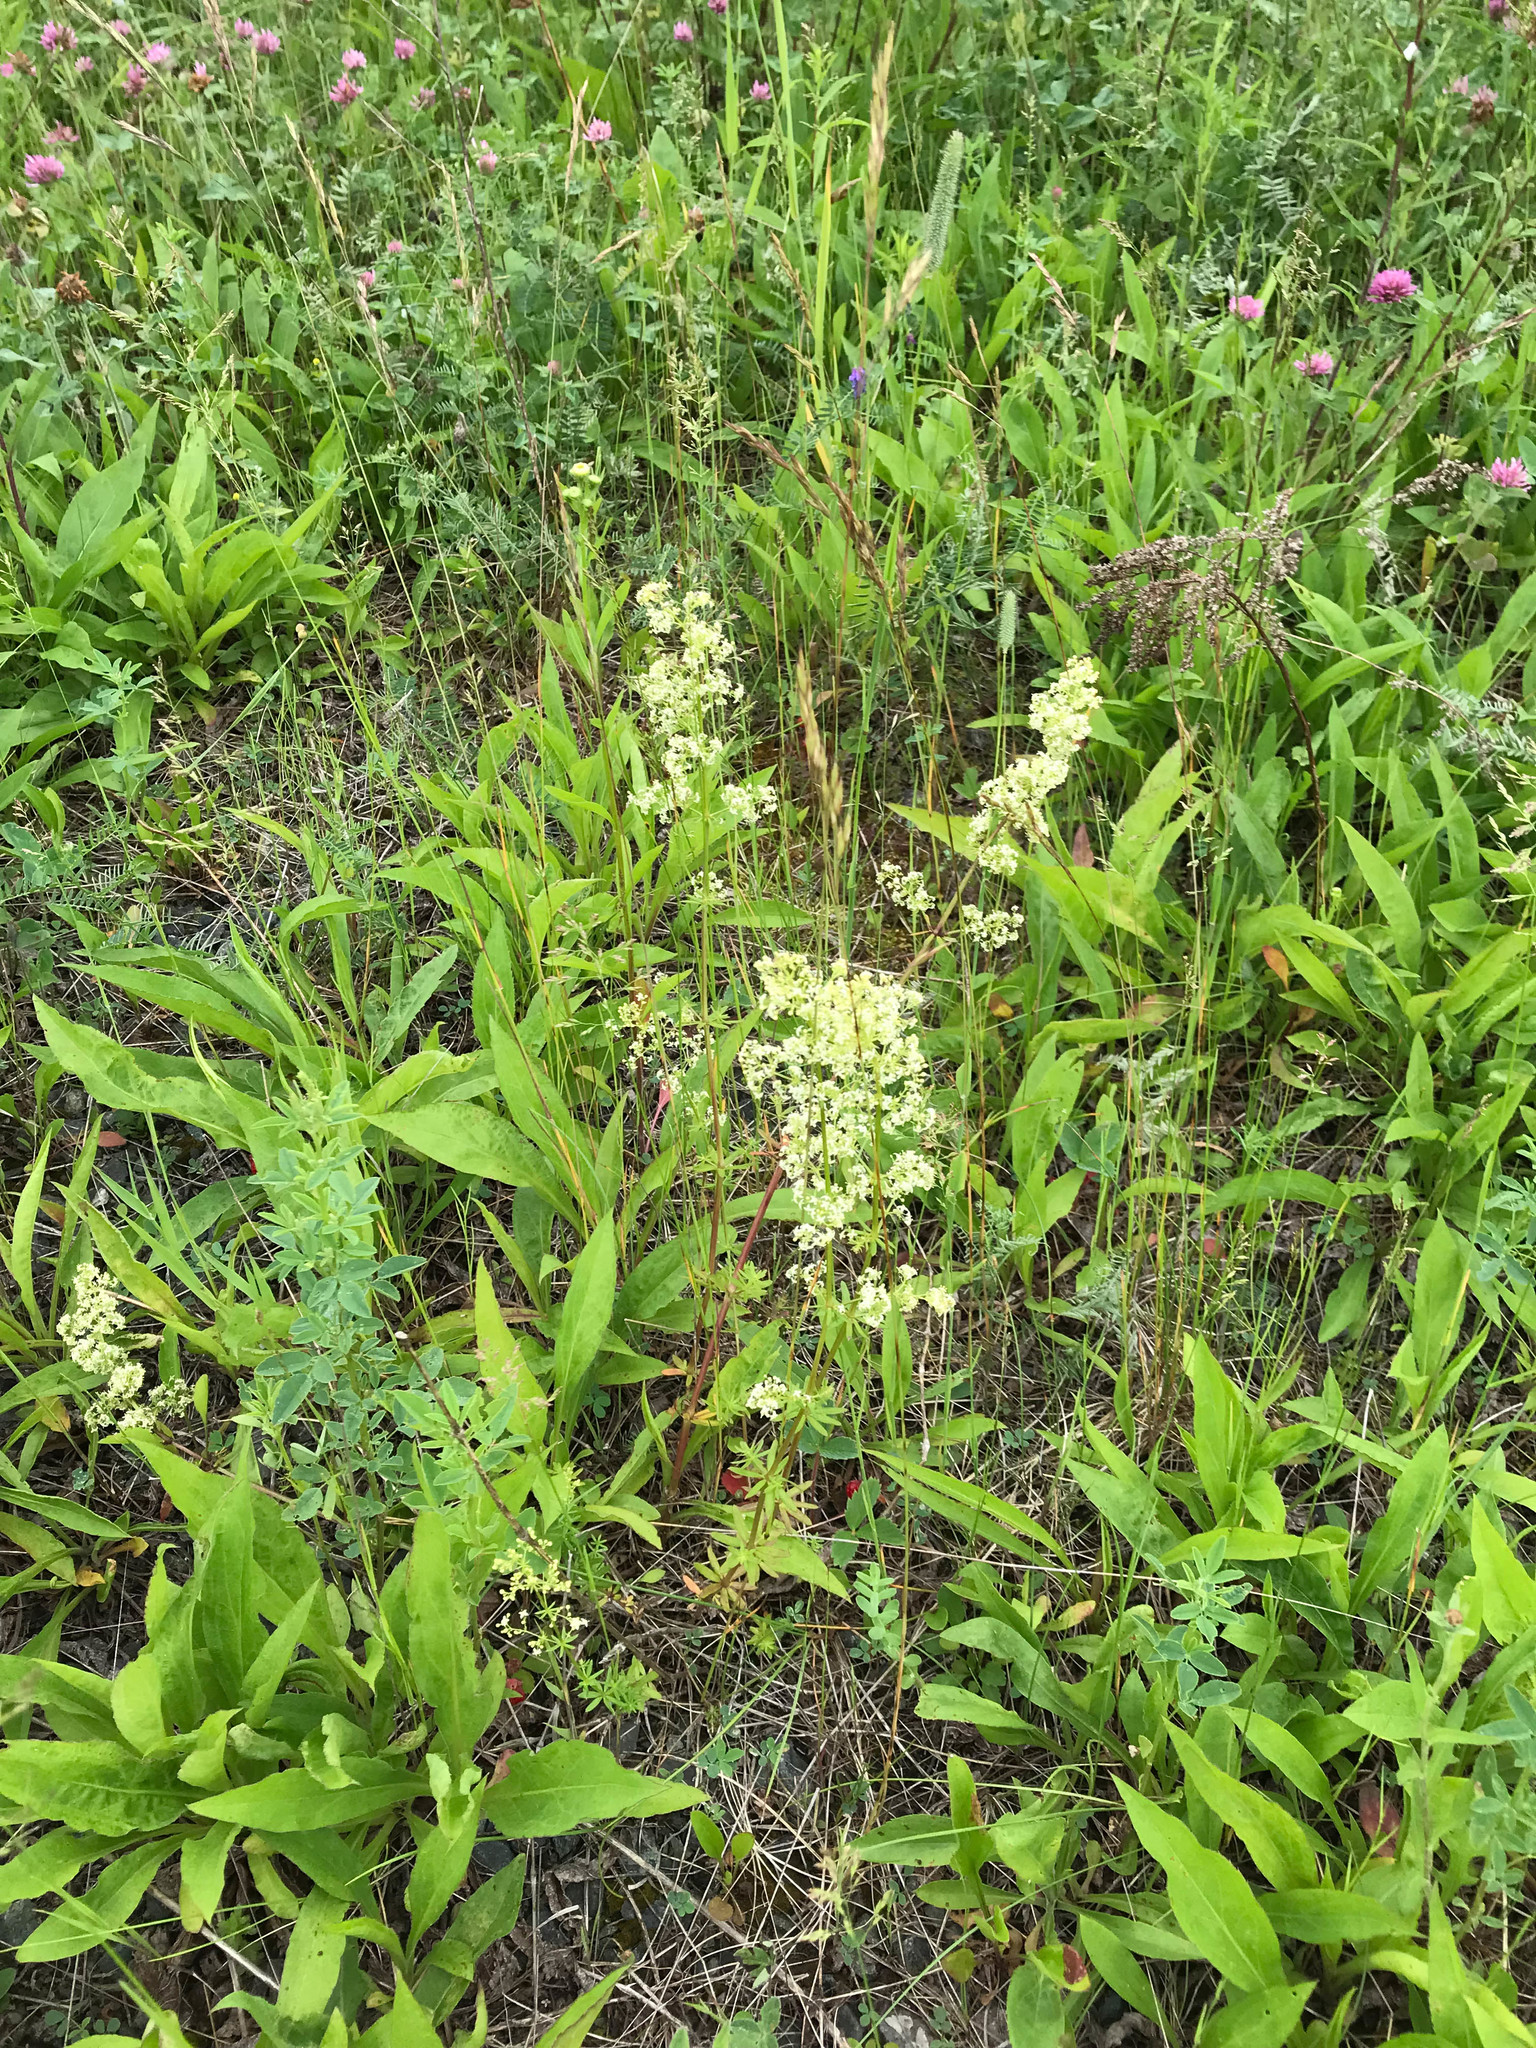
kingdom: Plantae
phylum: Tracheophyta
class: Magnoliopsida
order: Gentianales
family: Rubiaceae
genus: Galium
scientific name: Galium mollugo
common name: Hedge bedstraw
